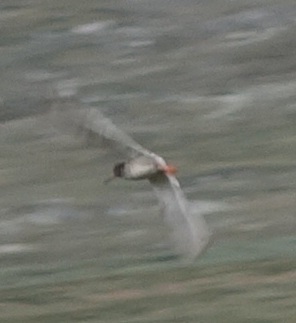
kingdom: Animalia
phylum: Chordata
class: Aves
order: Charadriiformes
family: Scolopacidae
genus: Tringa
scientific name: Tringa totanus
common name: Common redshank
